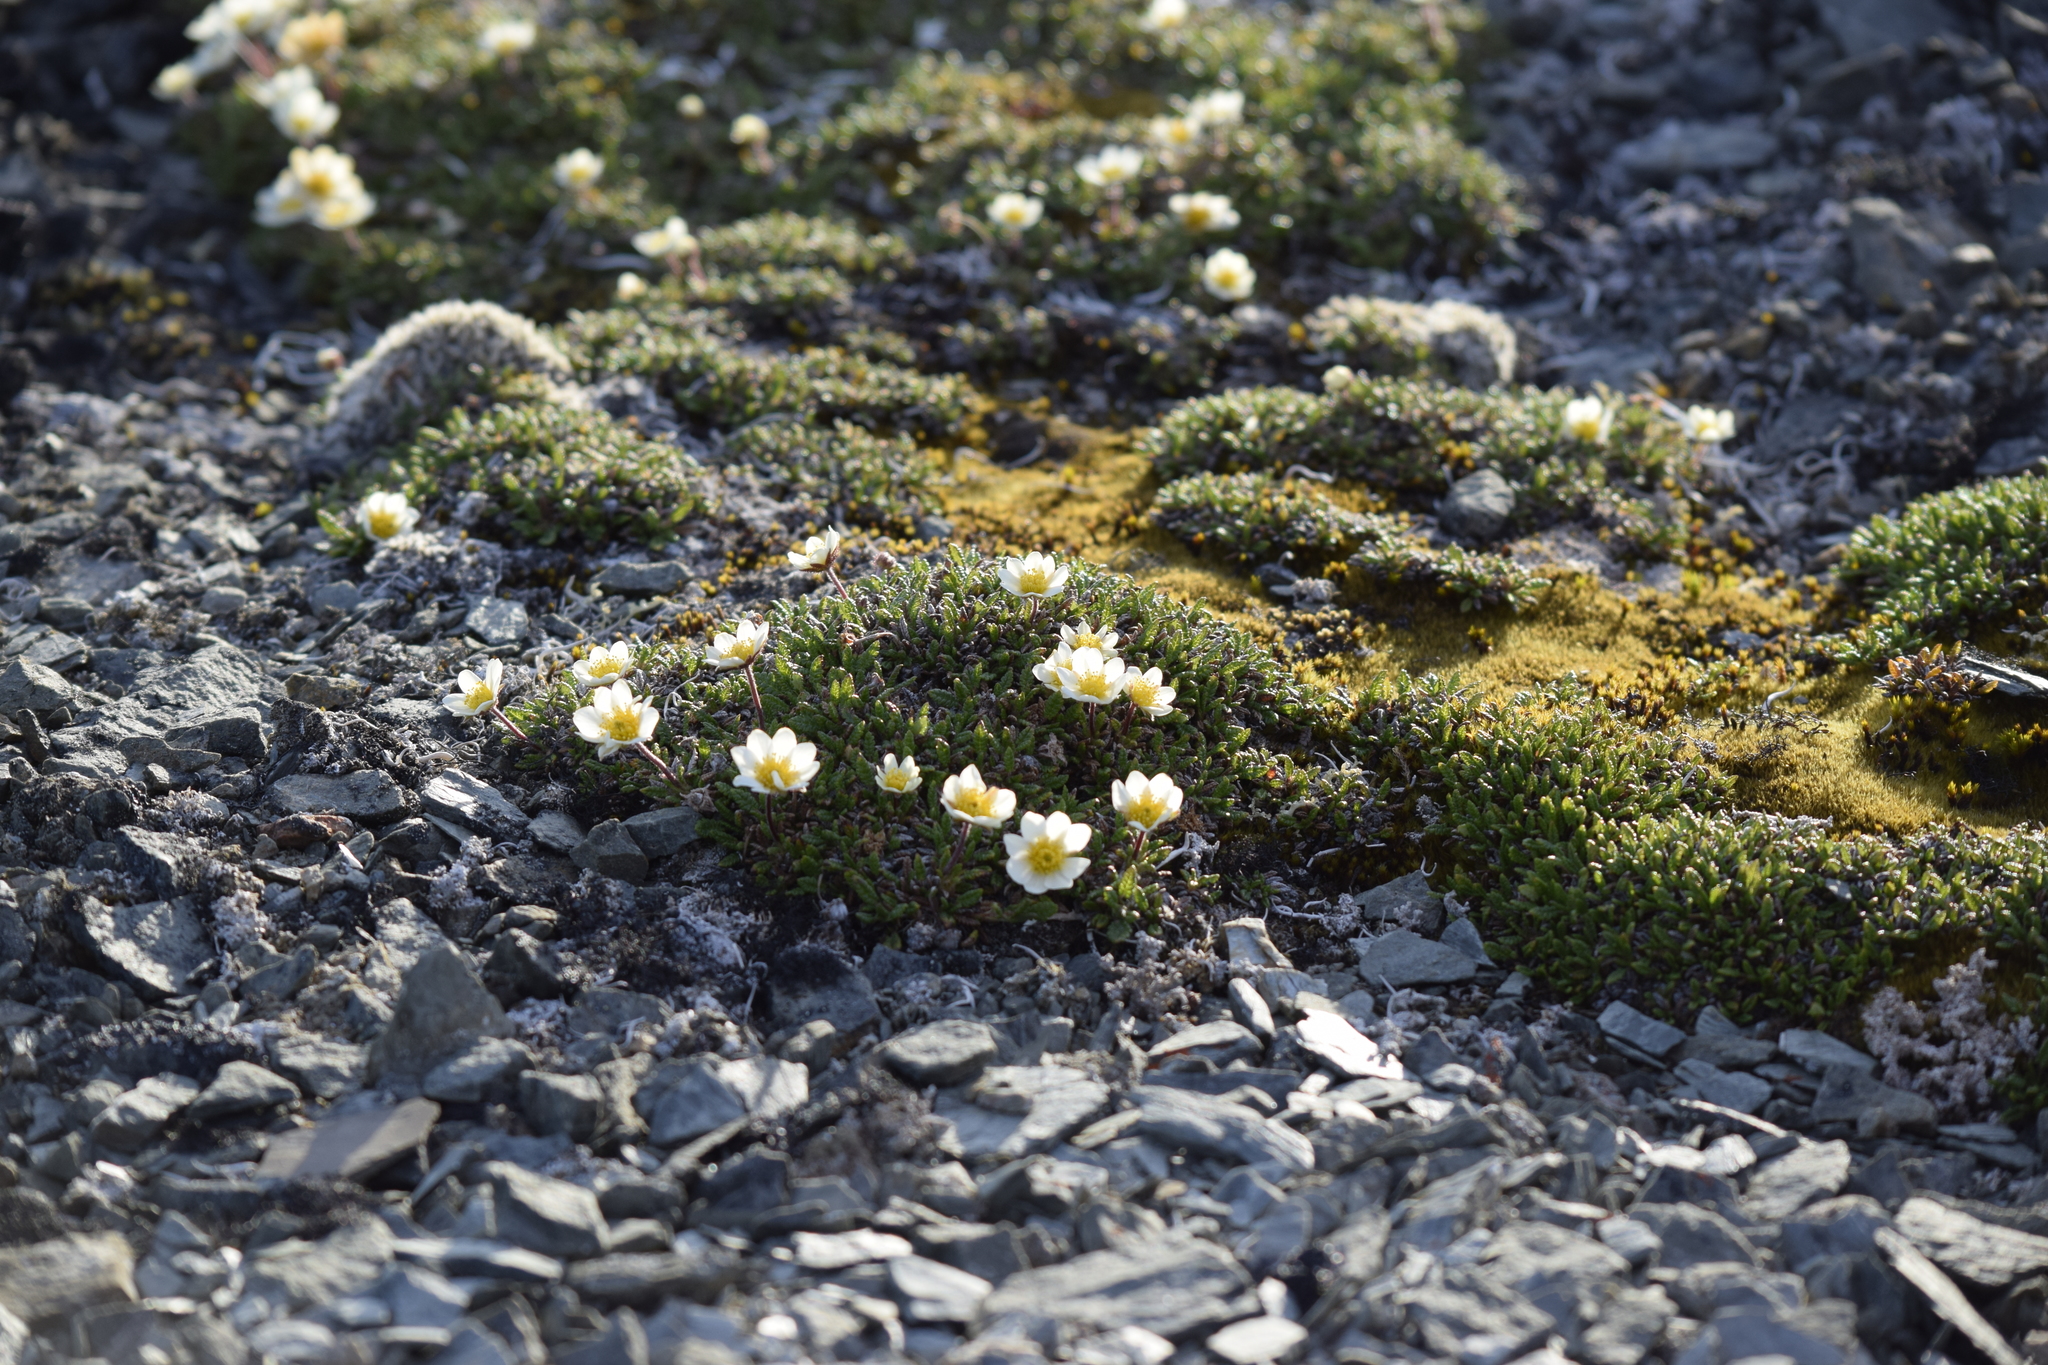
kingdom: Plantae
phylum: Tracheophyta
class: Magnoliopsida
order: Rosales
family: Rosaceae
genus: Dryas
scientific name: Dryas octopetala
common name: Eight-petal mountain-avens
